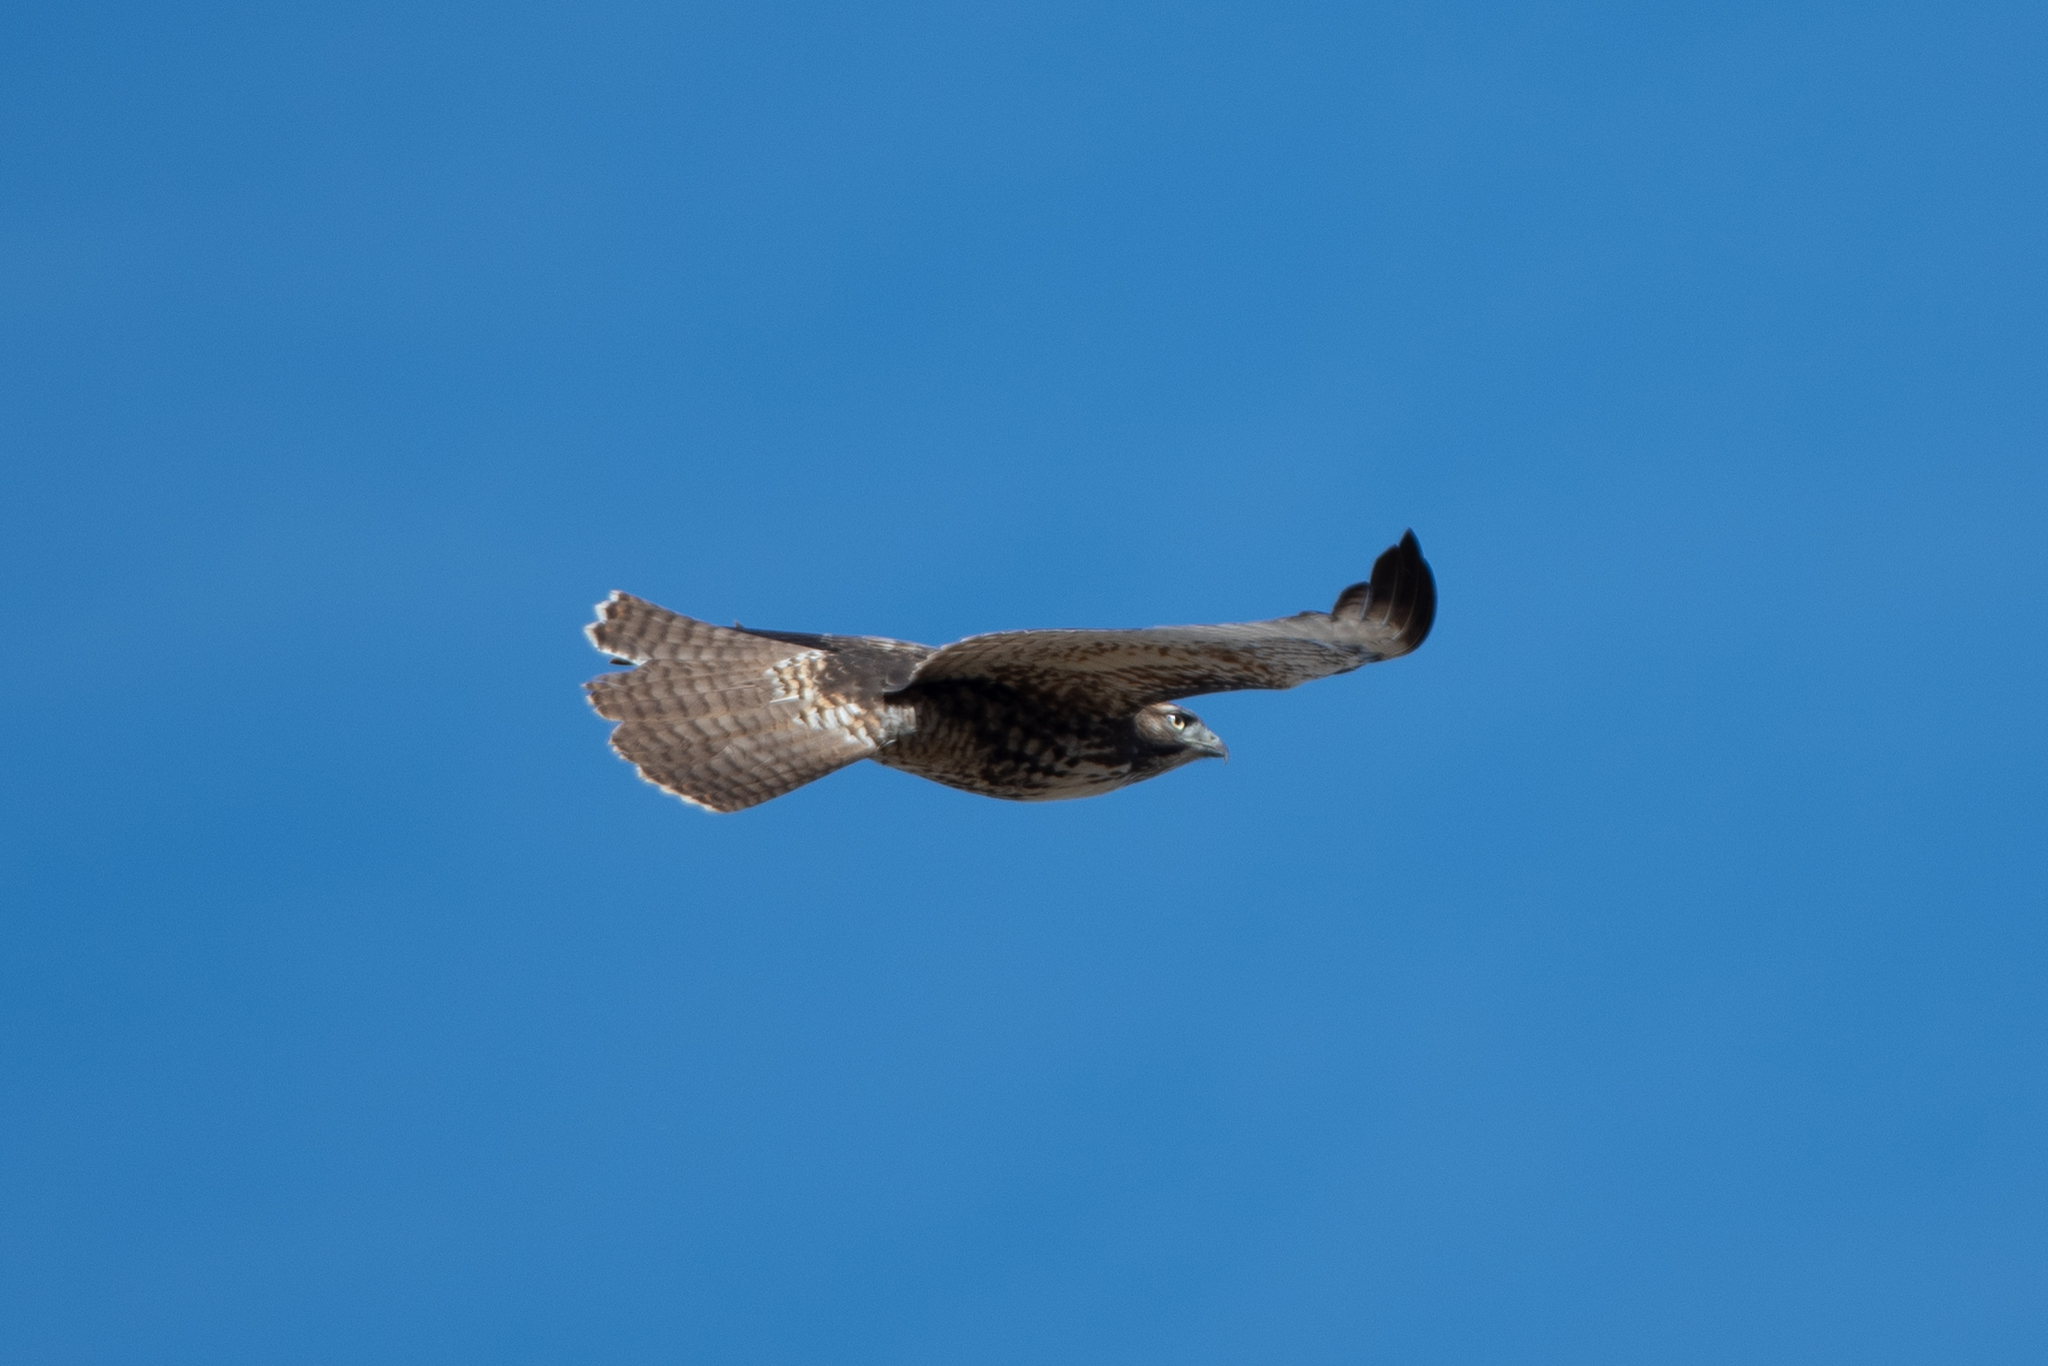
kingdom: Animalia
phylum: Chordata
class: Aves
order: Accipitriformes
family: Accipitridae
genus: Buteo
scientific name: Buteo jamaicensis
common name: Red-tailed hawk
